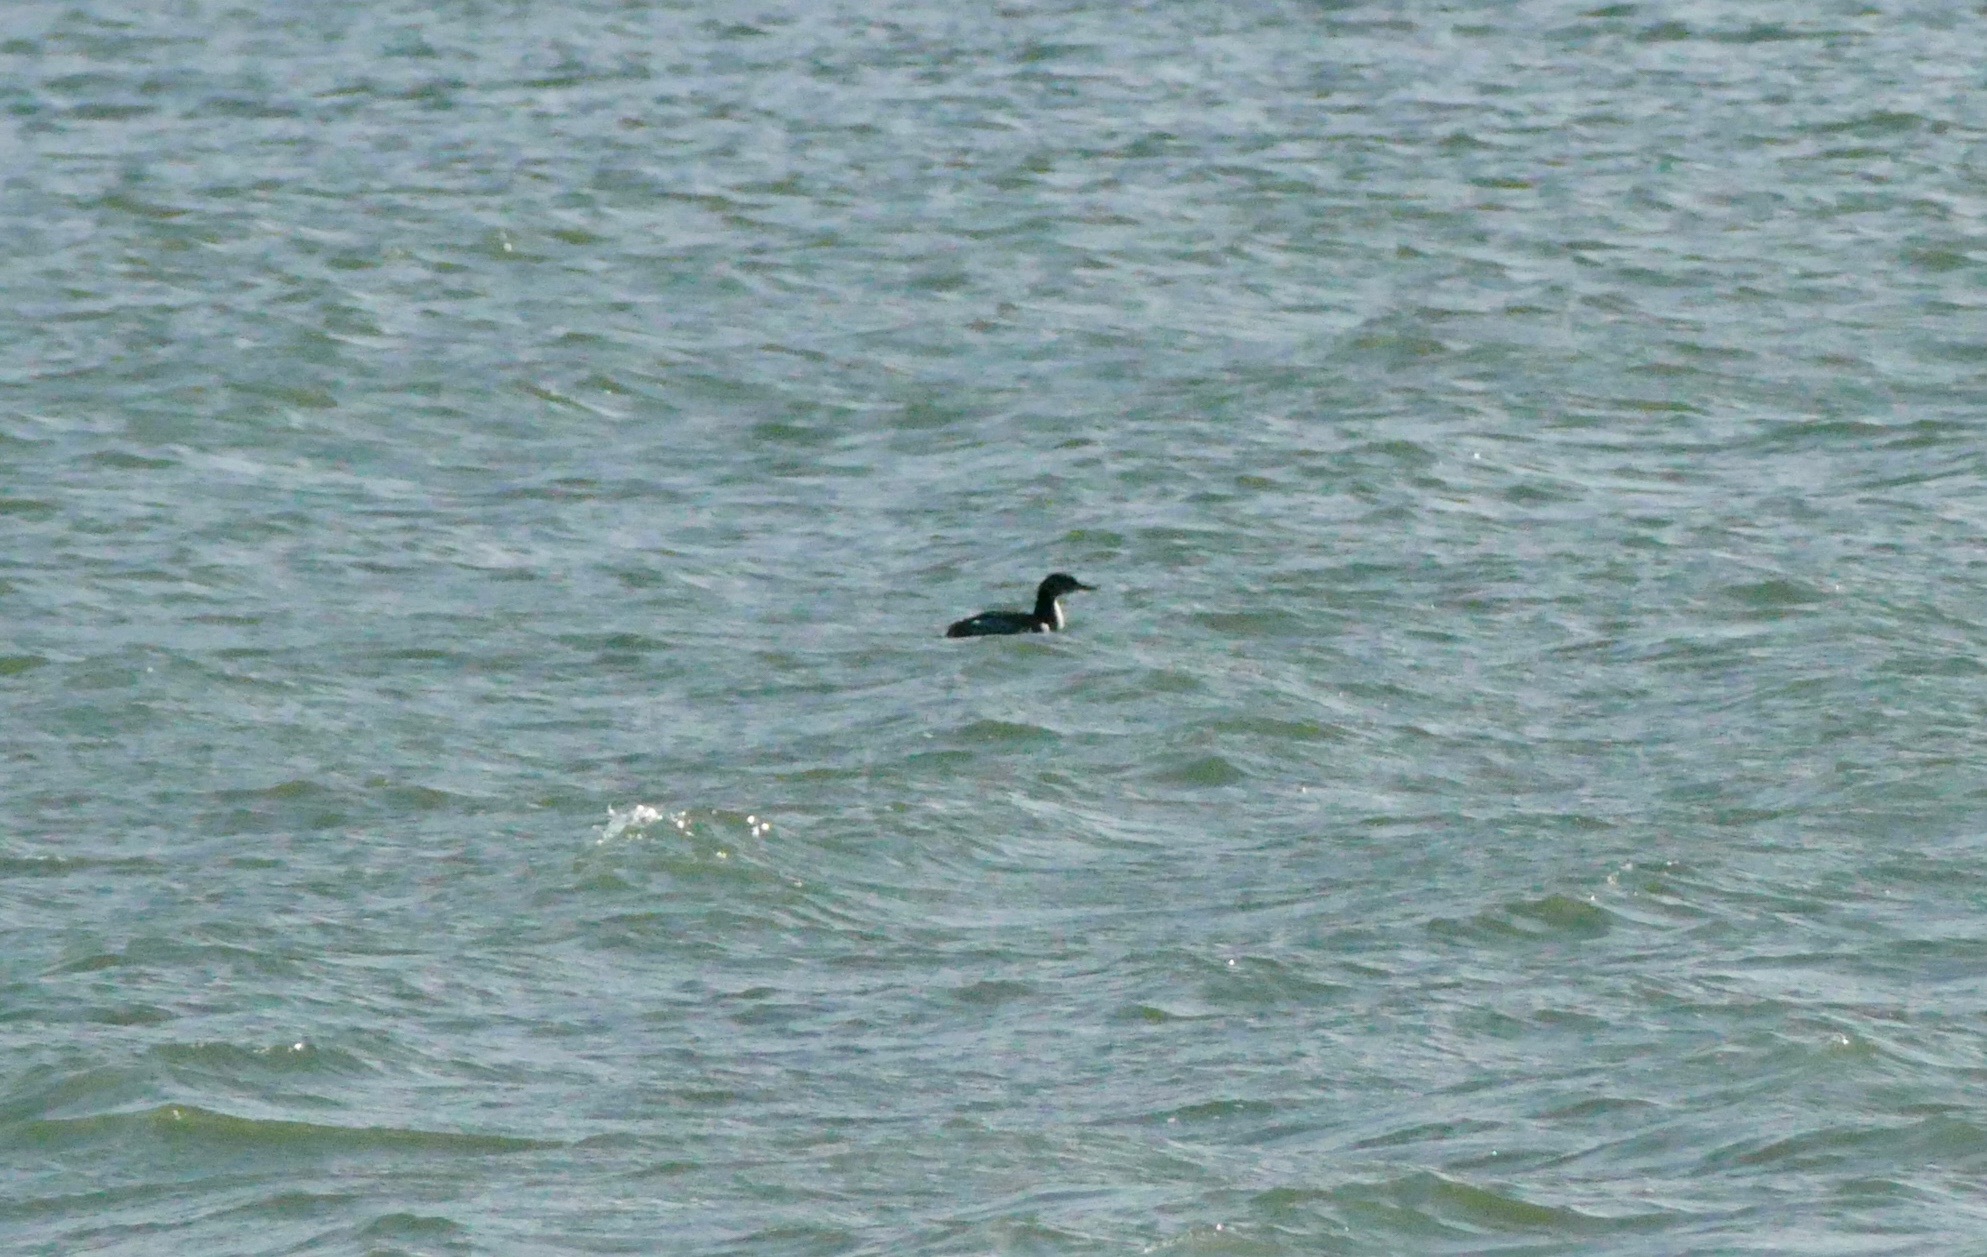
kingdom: Animalia
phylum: Chordata
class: Aves
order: Podicipediformes
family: Podicipedidae
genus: Podiceps
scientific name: Podiceps grisegena
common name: Red-necked grebe
